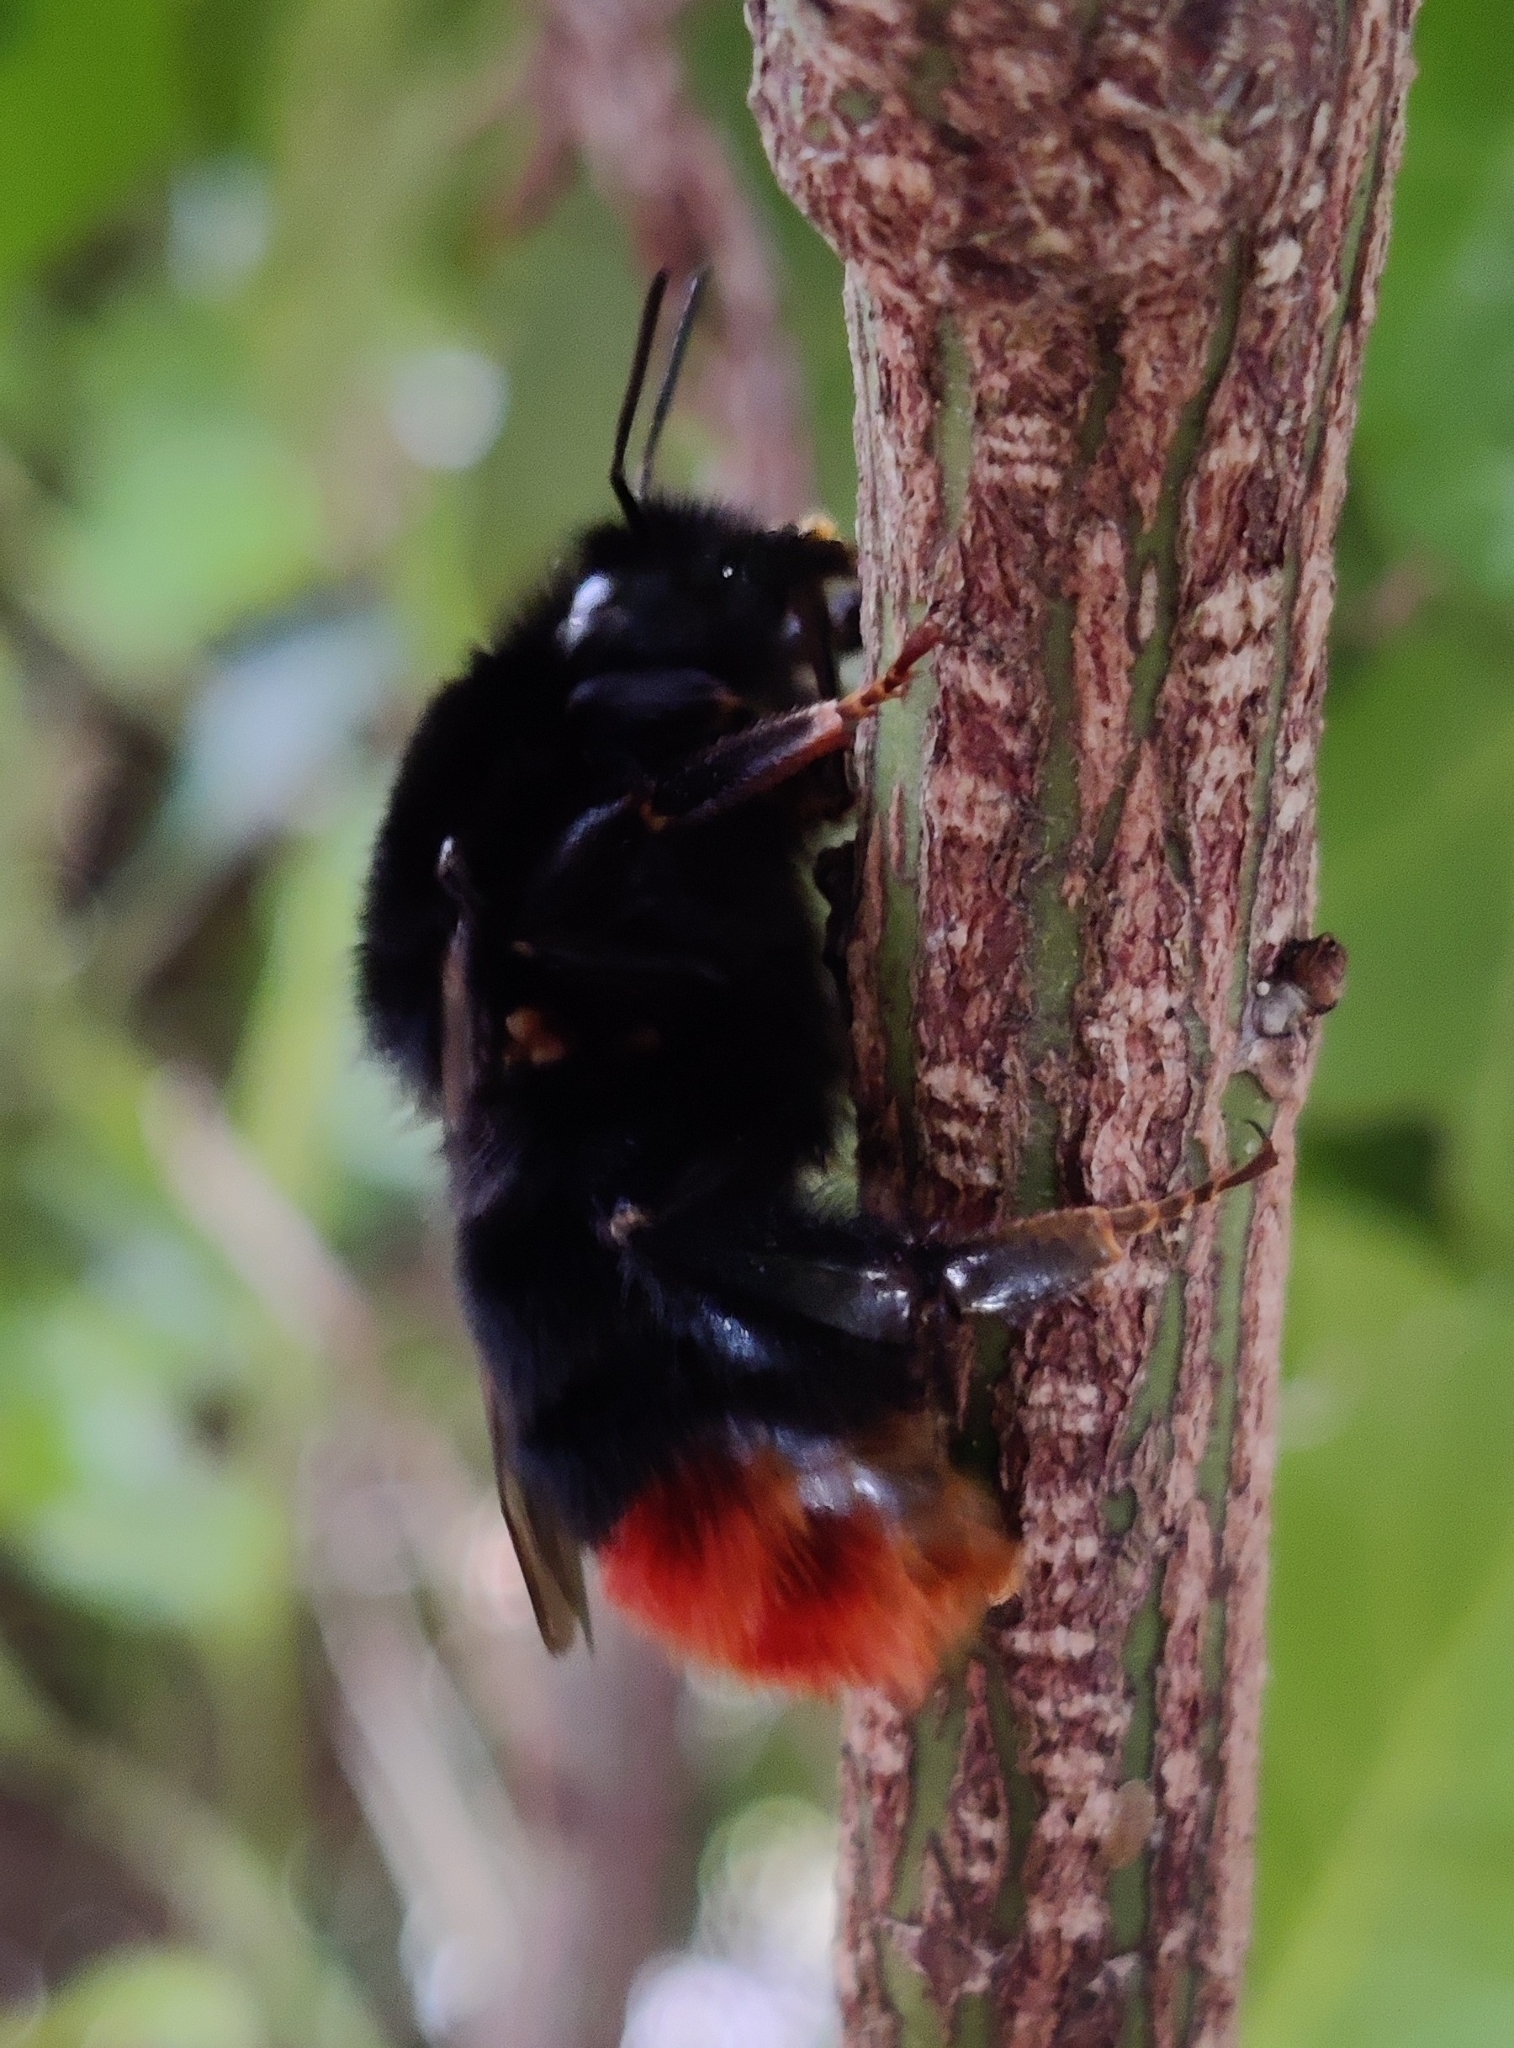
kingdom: Animalia
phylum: Arthropoda
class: Insecta
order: Hymenoptera
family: Apidae
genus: Bombus
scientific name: Bombus lapidarius
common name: Large red-tailed humble-bee
